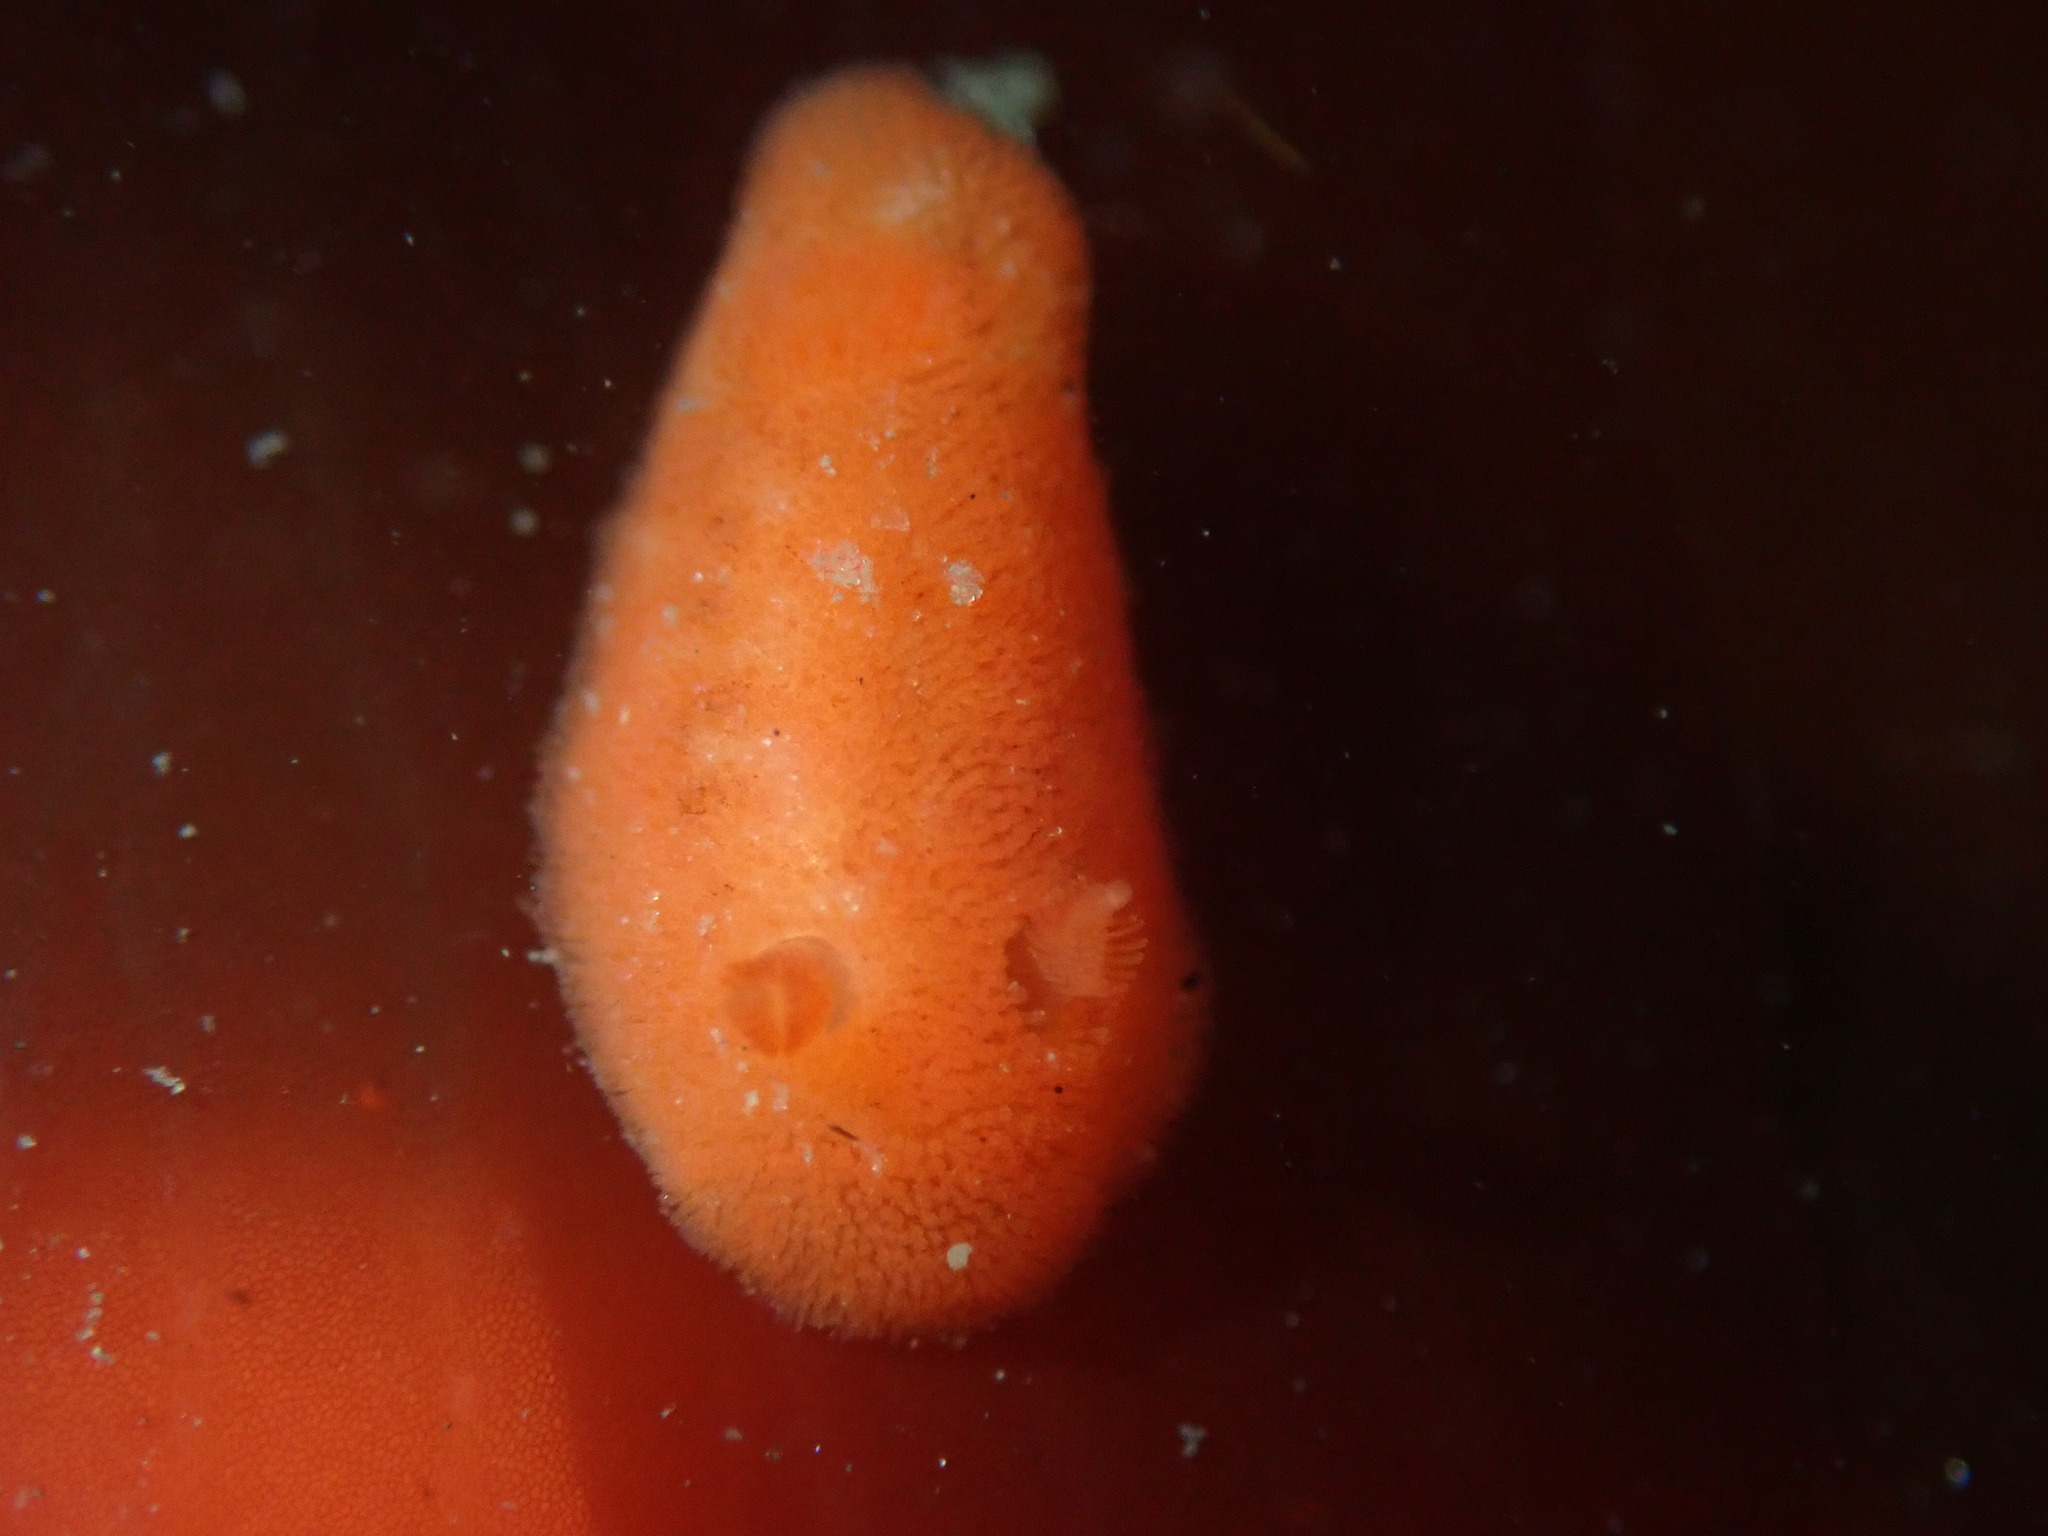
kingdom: Animalia
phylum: Mollusca
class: Gastropoda
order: Nudibranchia
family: Discodorididae
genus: Rostanga
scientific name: Rostanga pulchra
